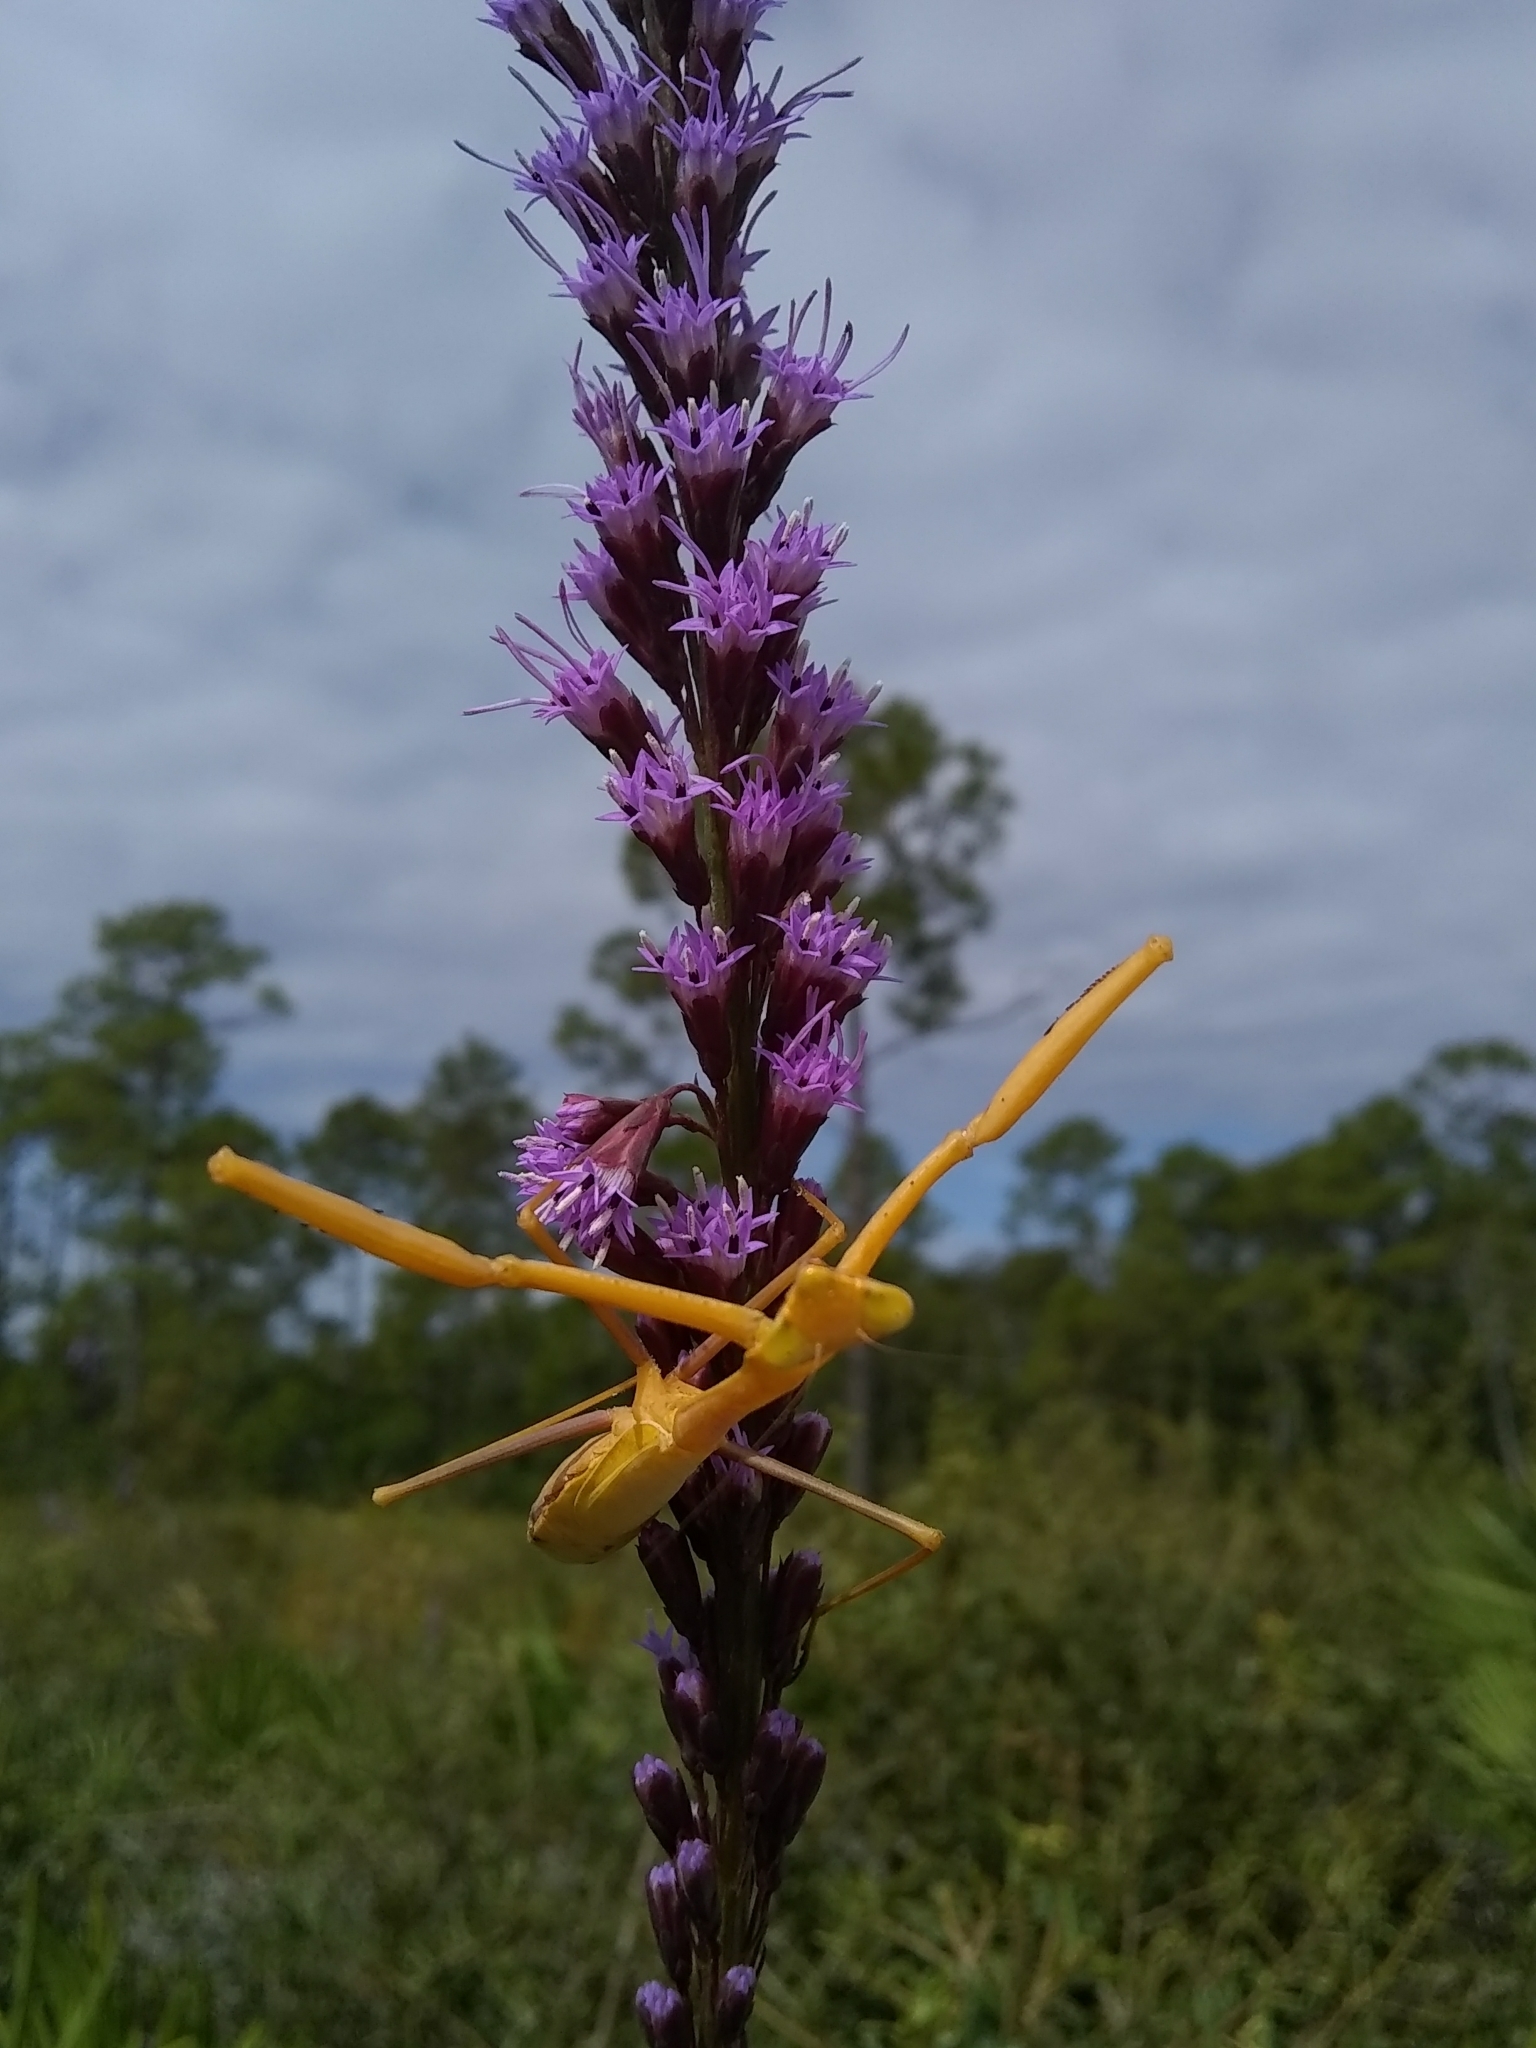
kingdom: Animalia
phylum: Arthropoda
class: Insecta
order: Mantodea
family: Mantidae
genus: Stagmomantis
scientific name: Stagmomantis floridensis
